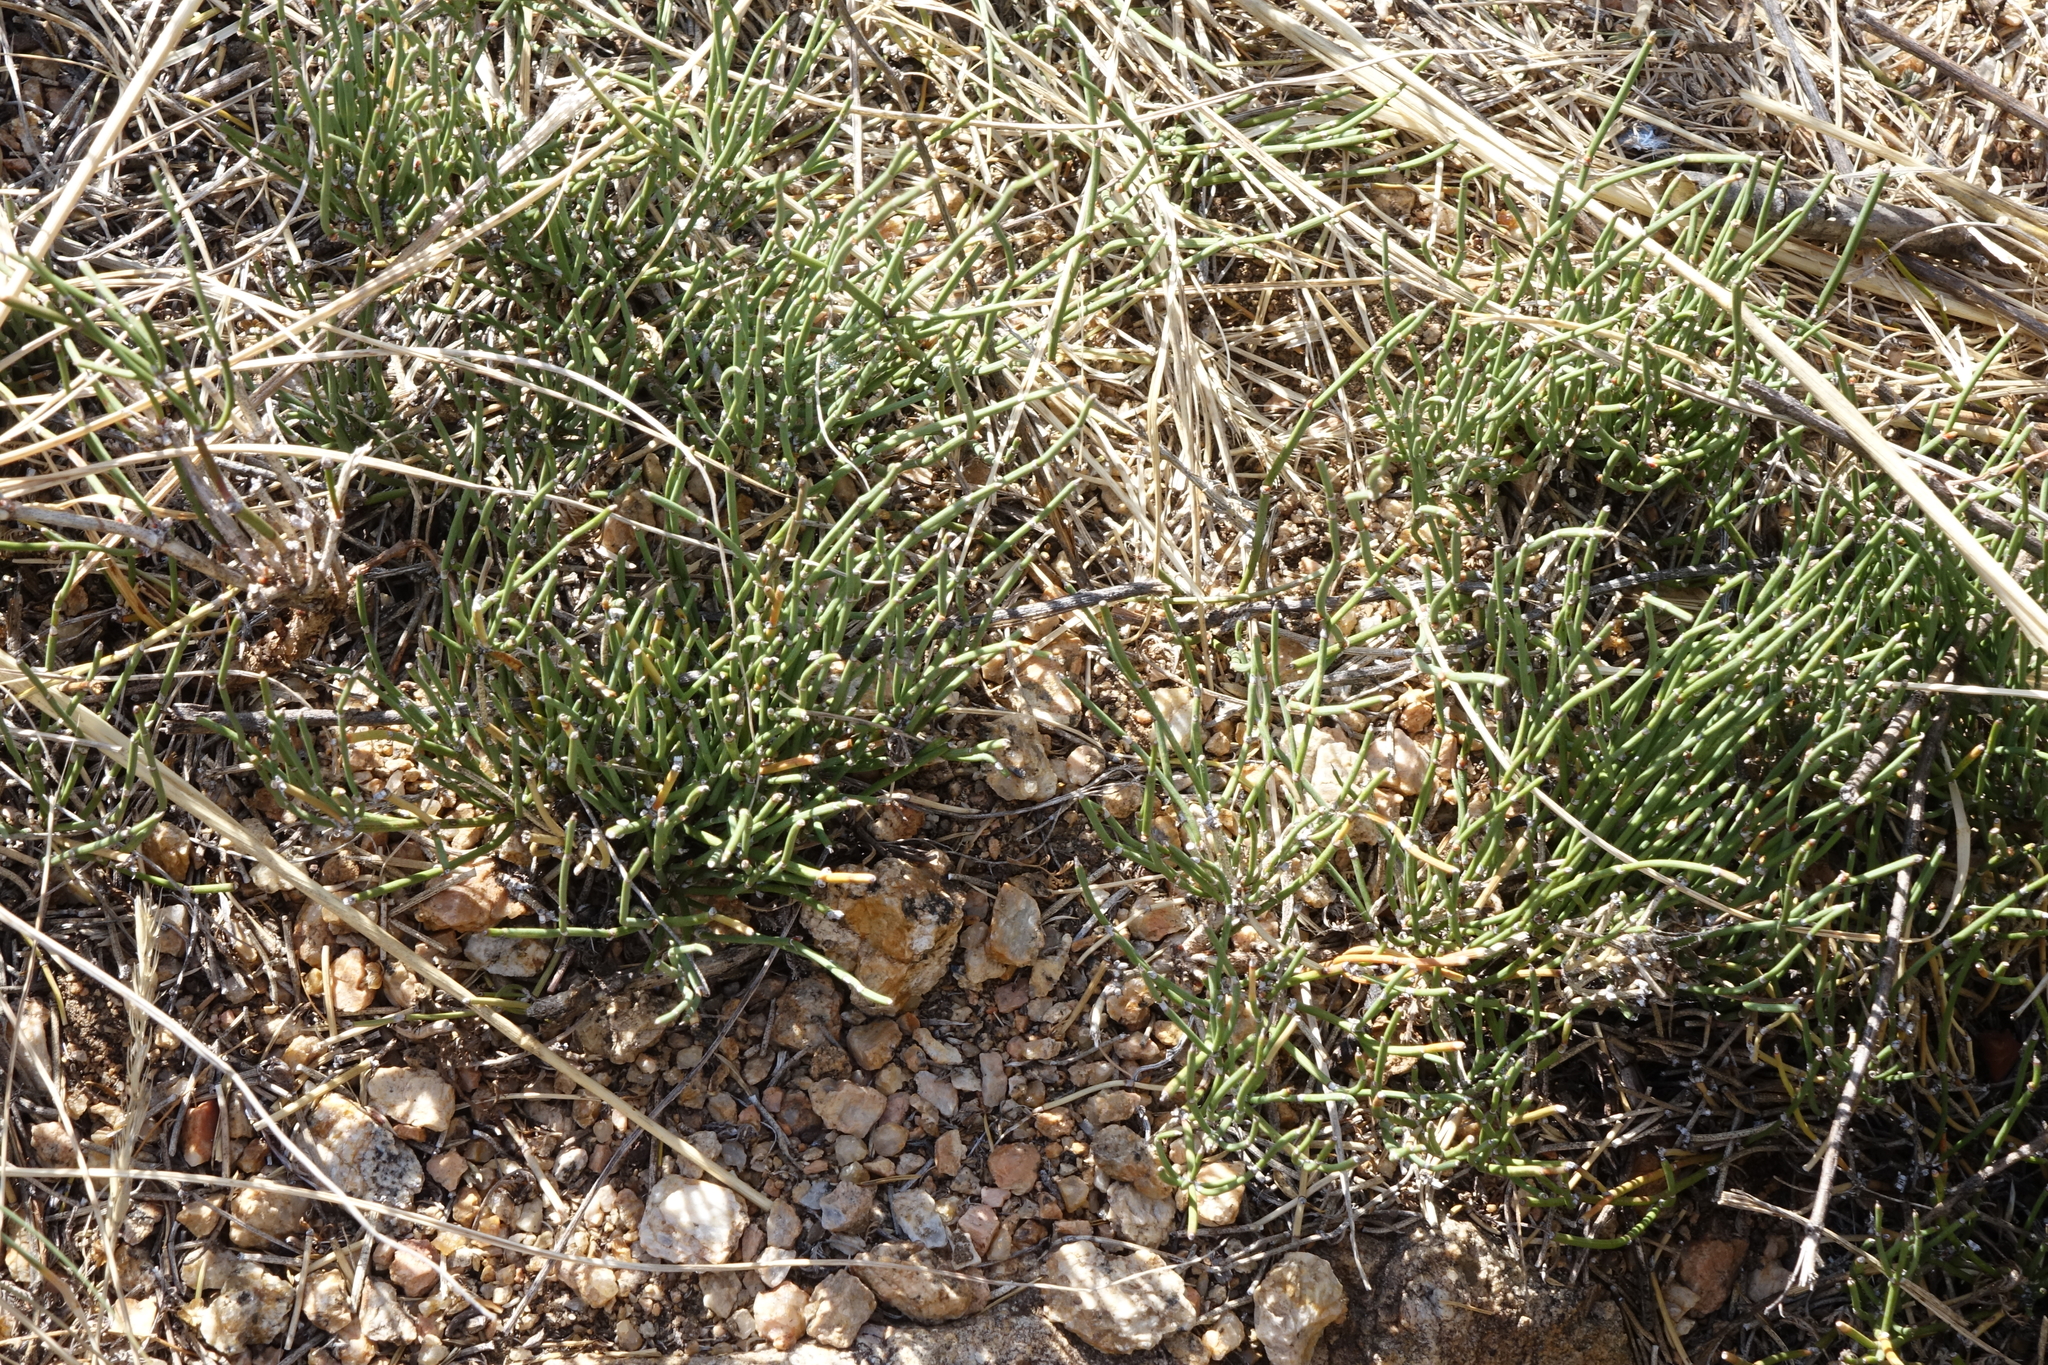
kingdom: Plantae
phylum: Tracheophyta
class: Gnetopsida
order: Ephedrales
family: Ephedraceae
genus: Ephedra
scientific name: Ephedra monosperma
